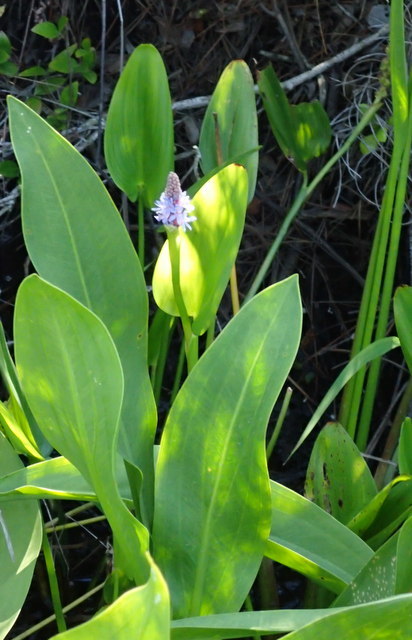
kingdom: Plantae
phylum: Tracheophyta
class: Liliopsida
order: Commelinales
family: Pontederiaceae
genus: Pontederia
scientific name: Pontederia cordata
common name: Pickerelweed
